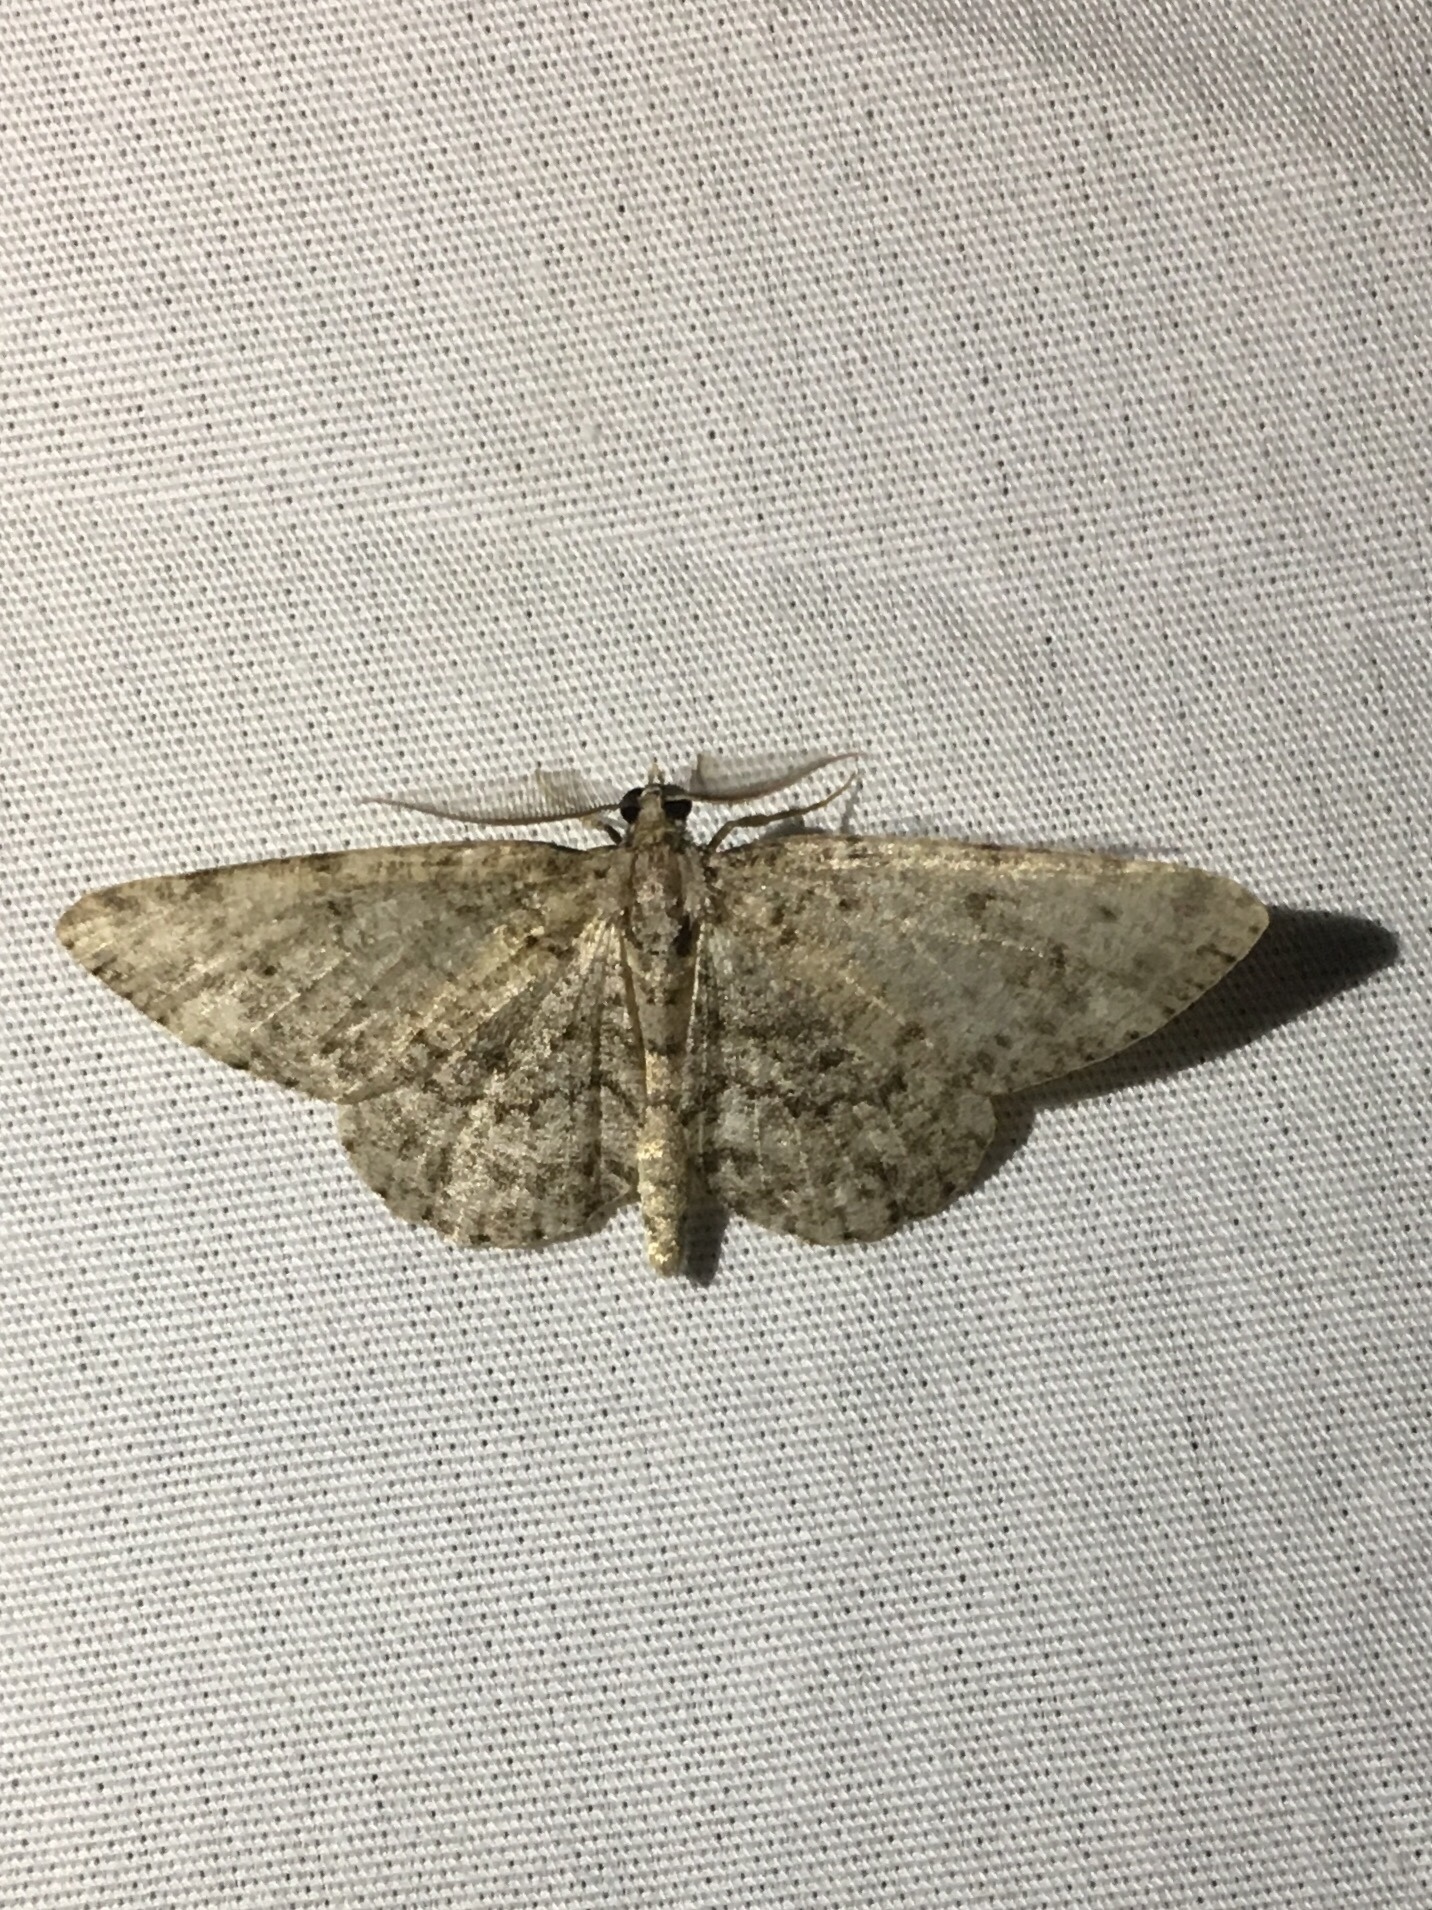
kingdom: Animalia
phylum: Arthropoda
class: Insecta
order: Lepidoptera
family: Geometridae
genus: Protoboarmia
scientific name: Protoboarmia porcelaria
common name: Porcelain gray
